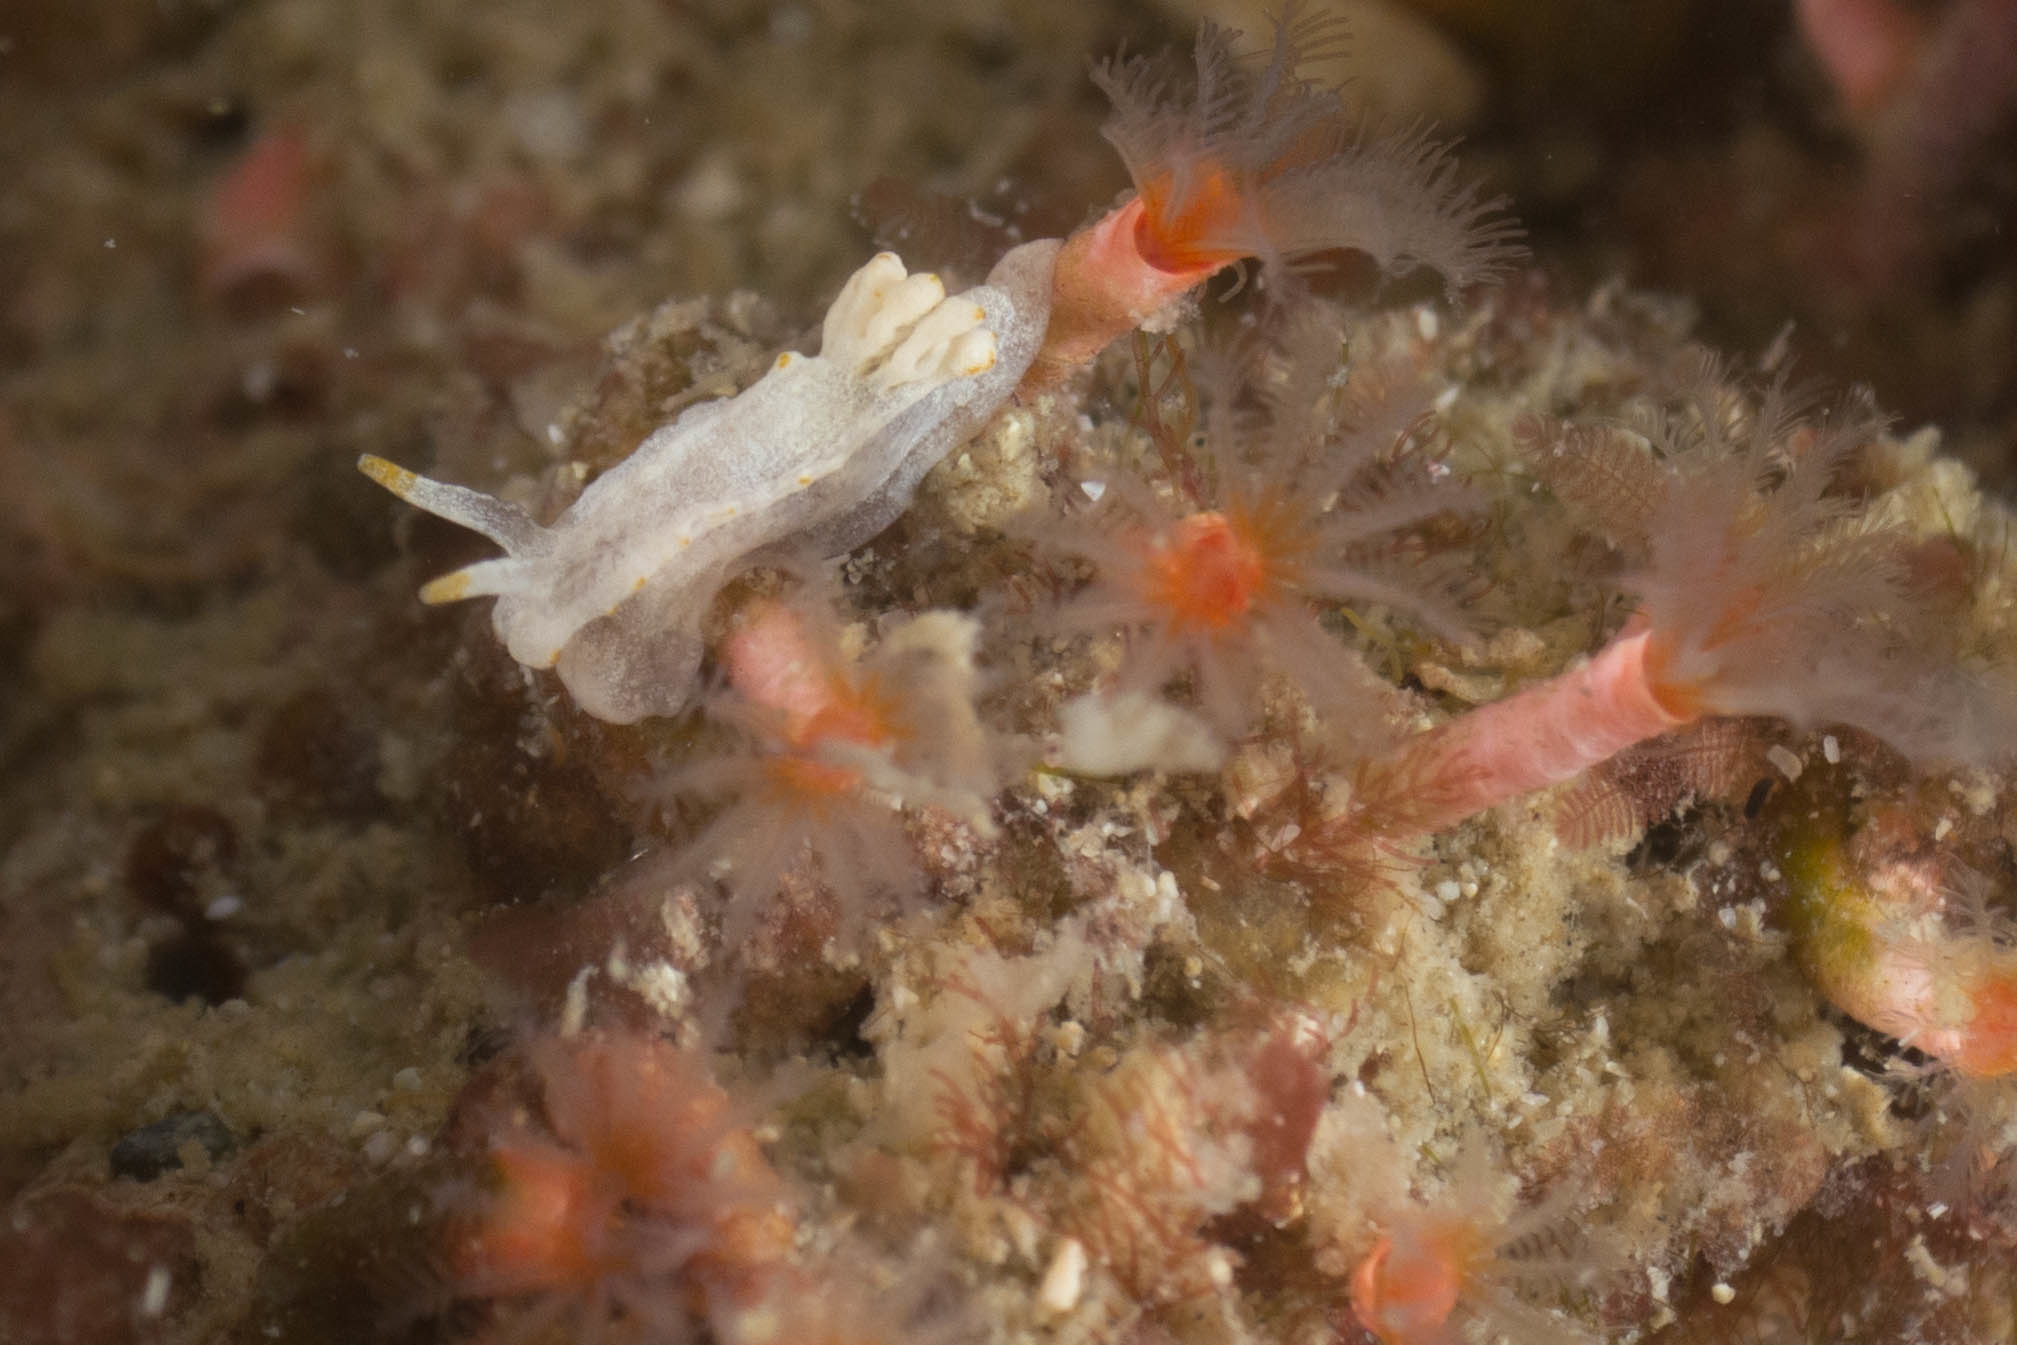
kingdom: Animalia
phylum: Mollusca
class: Gastropoda
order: Nudibranchia
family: Goniodorididae
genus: Goniodoridella
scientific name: Goniodoridella savignyi
